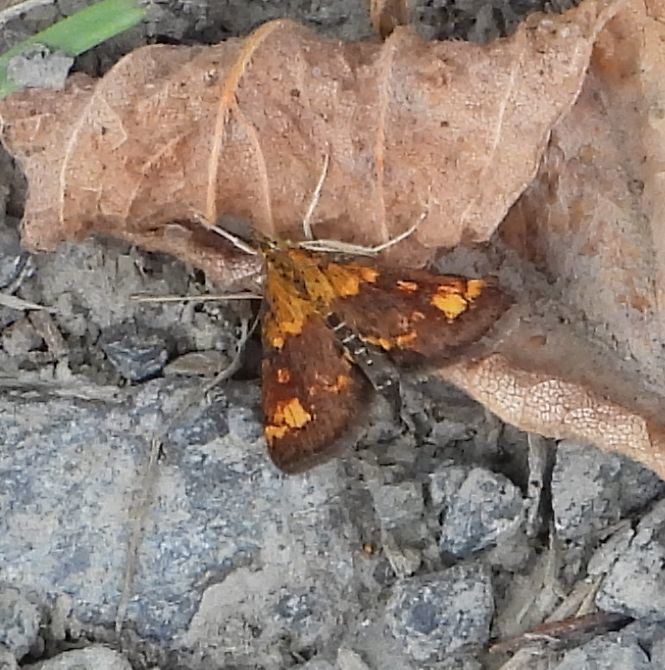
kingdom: Animalia
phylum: Arthropoda
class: Insecta
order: Lepidoptera
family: Crambidae
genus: Pyrausta
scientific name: Pyrausta orphisalis
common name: Orange mint moth
